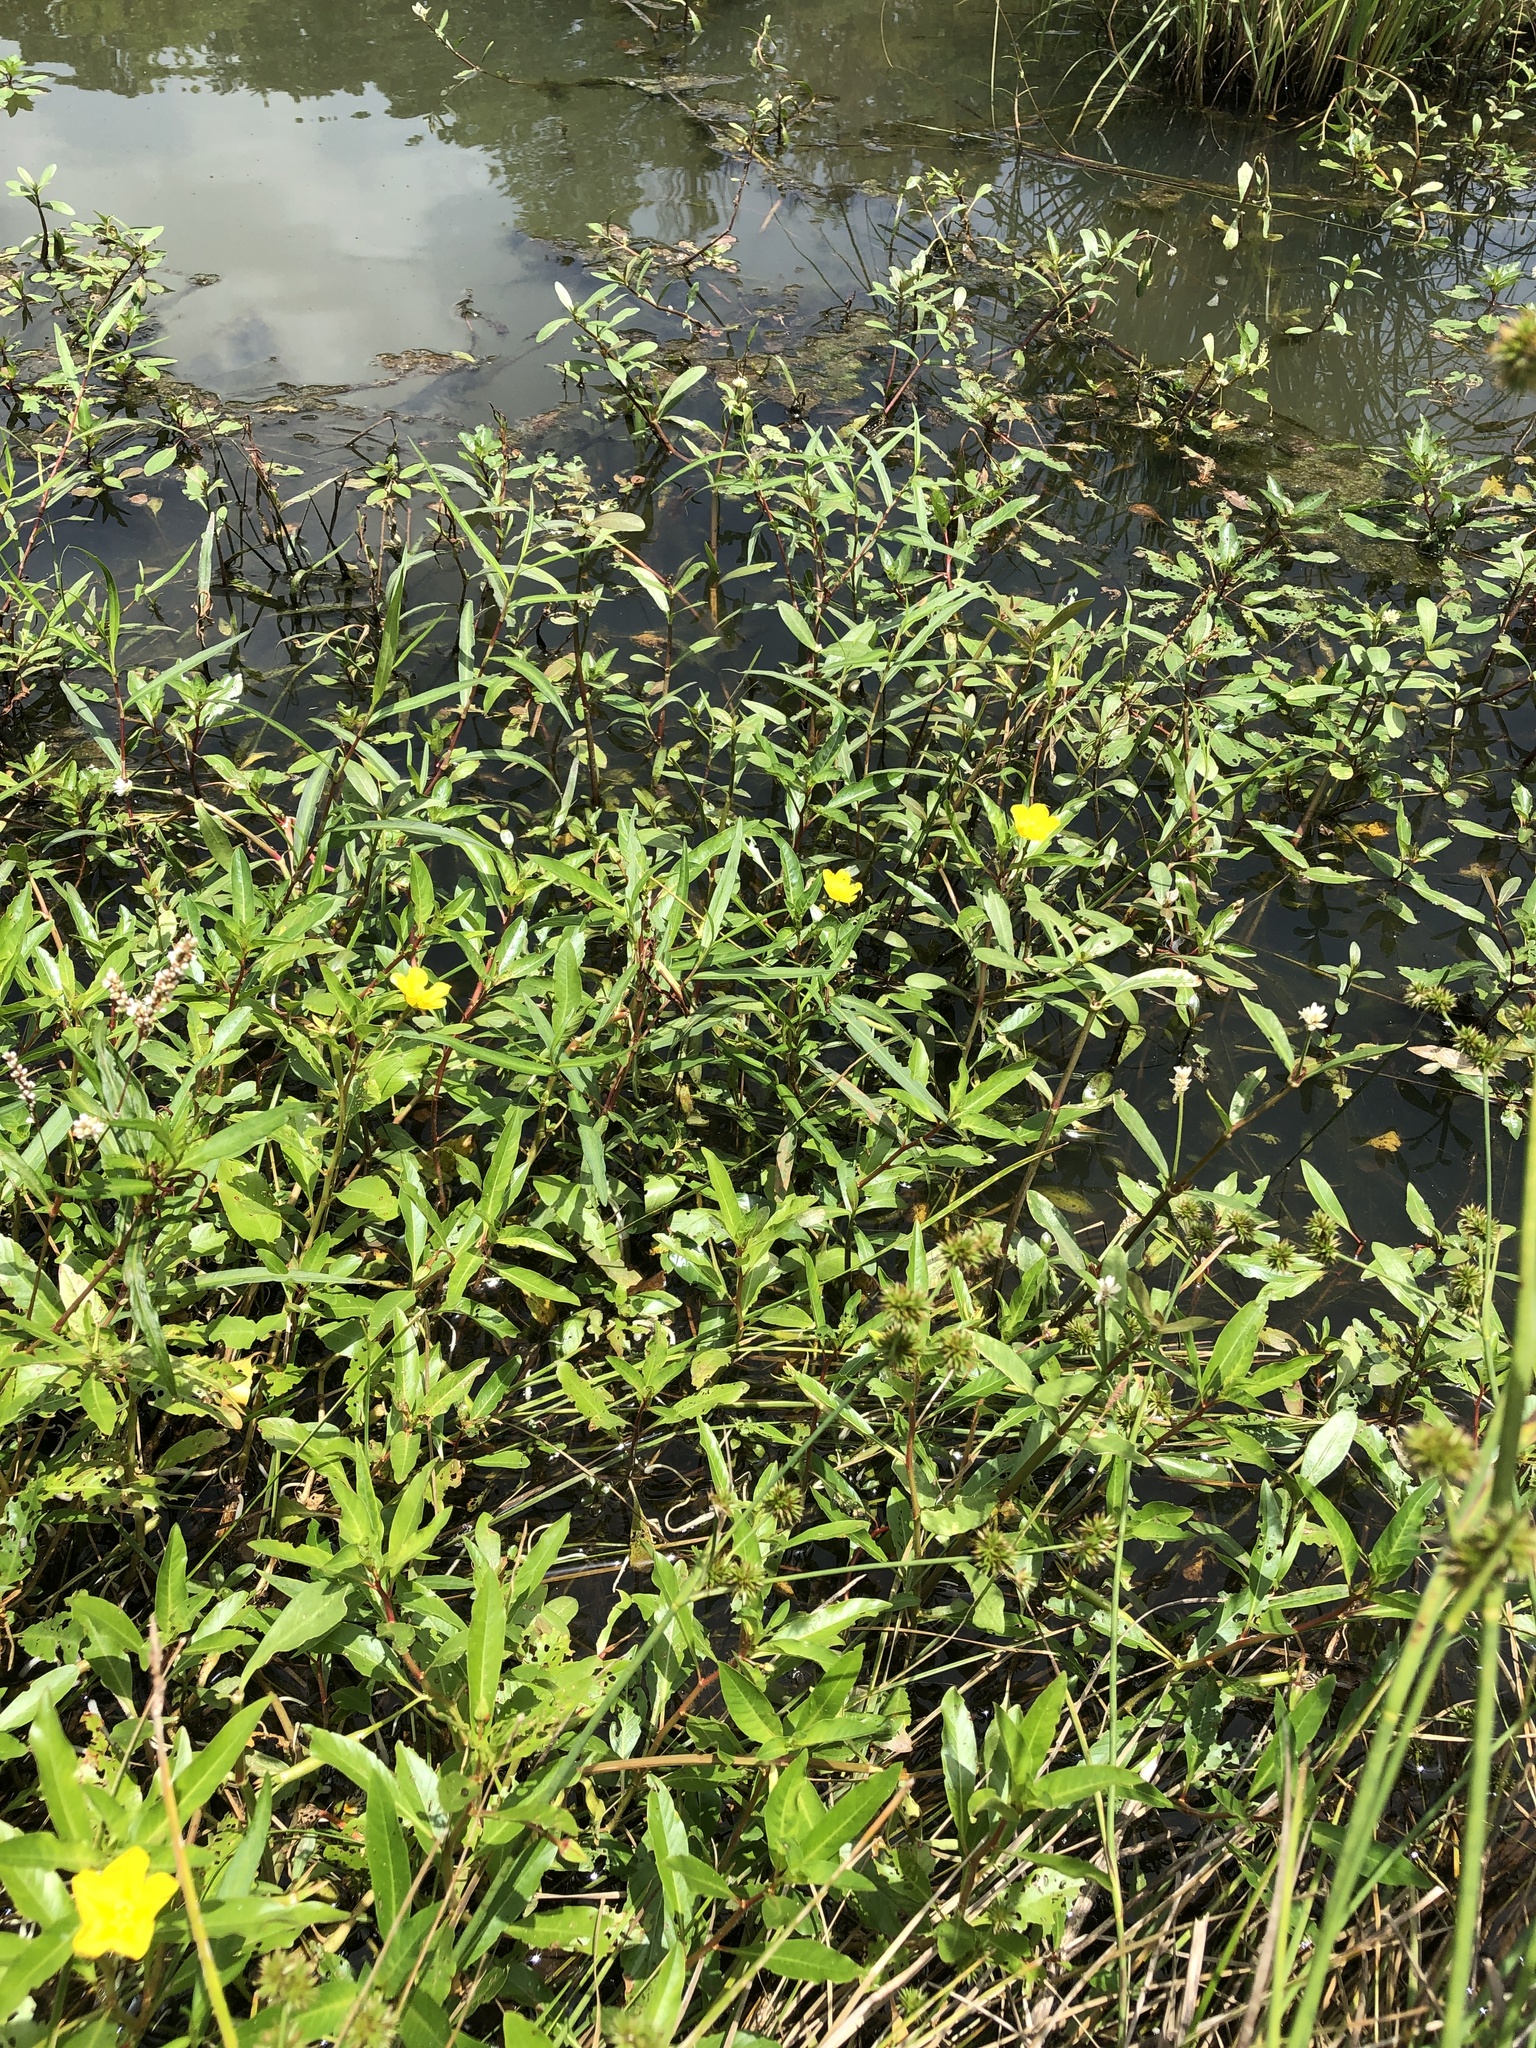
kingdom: Plantae
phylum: Tracheophyta
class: Magnoliopsida
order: Myrtales
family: Onagraceae
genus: Ludwigia
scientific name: Ludwigia peploides
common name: Floating primrose-willow
